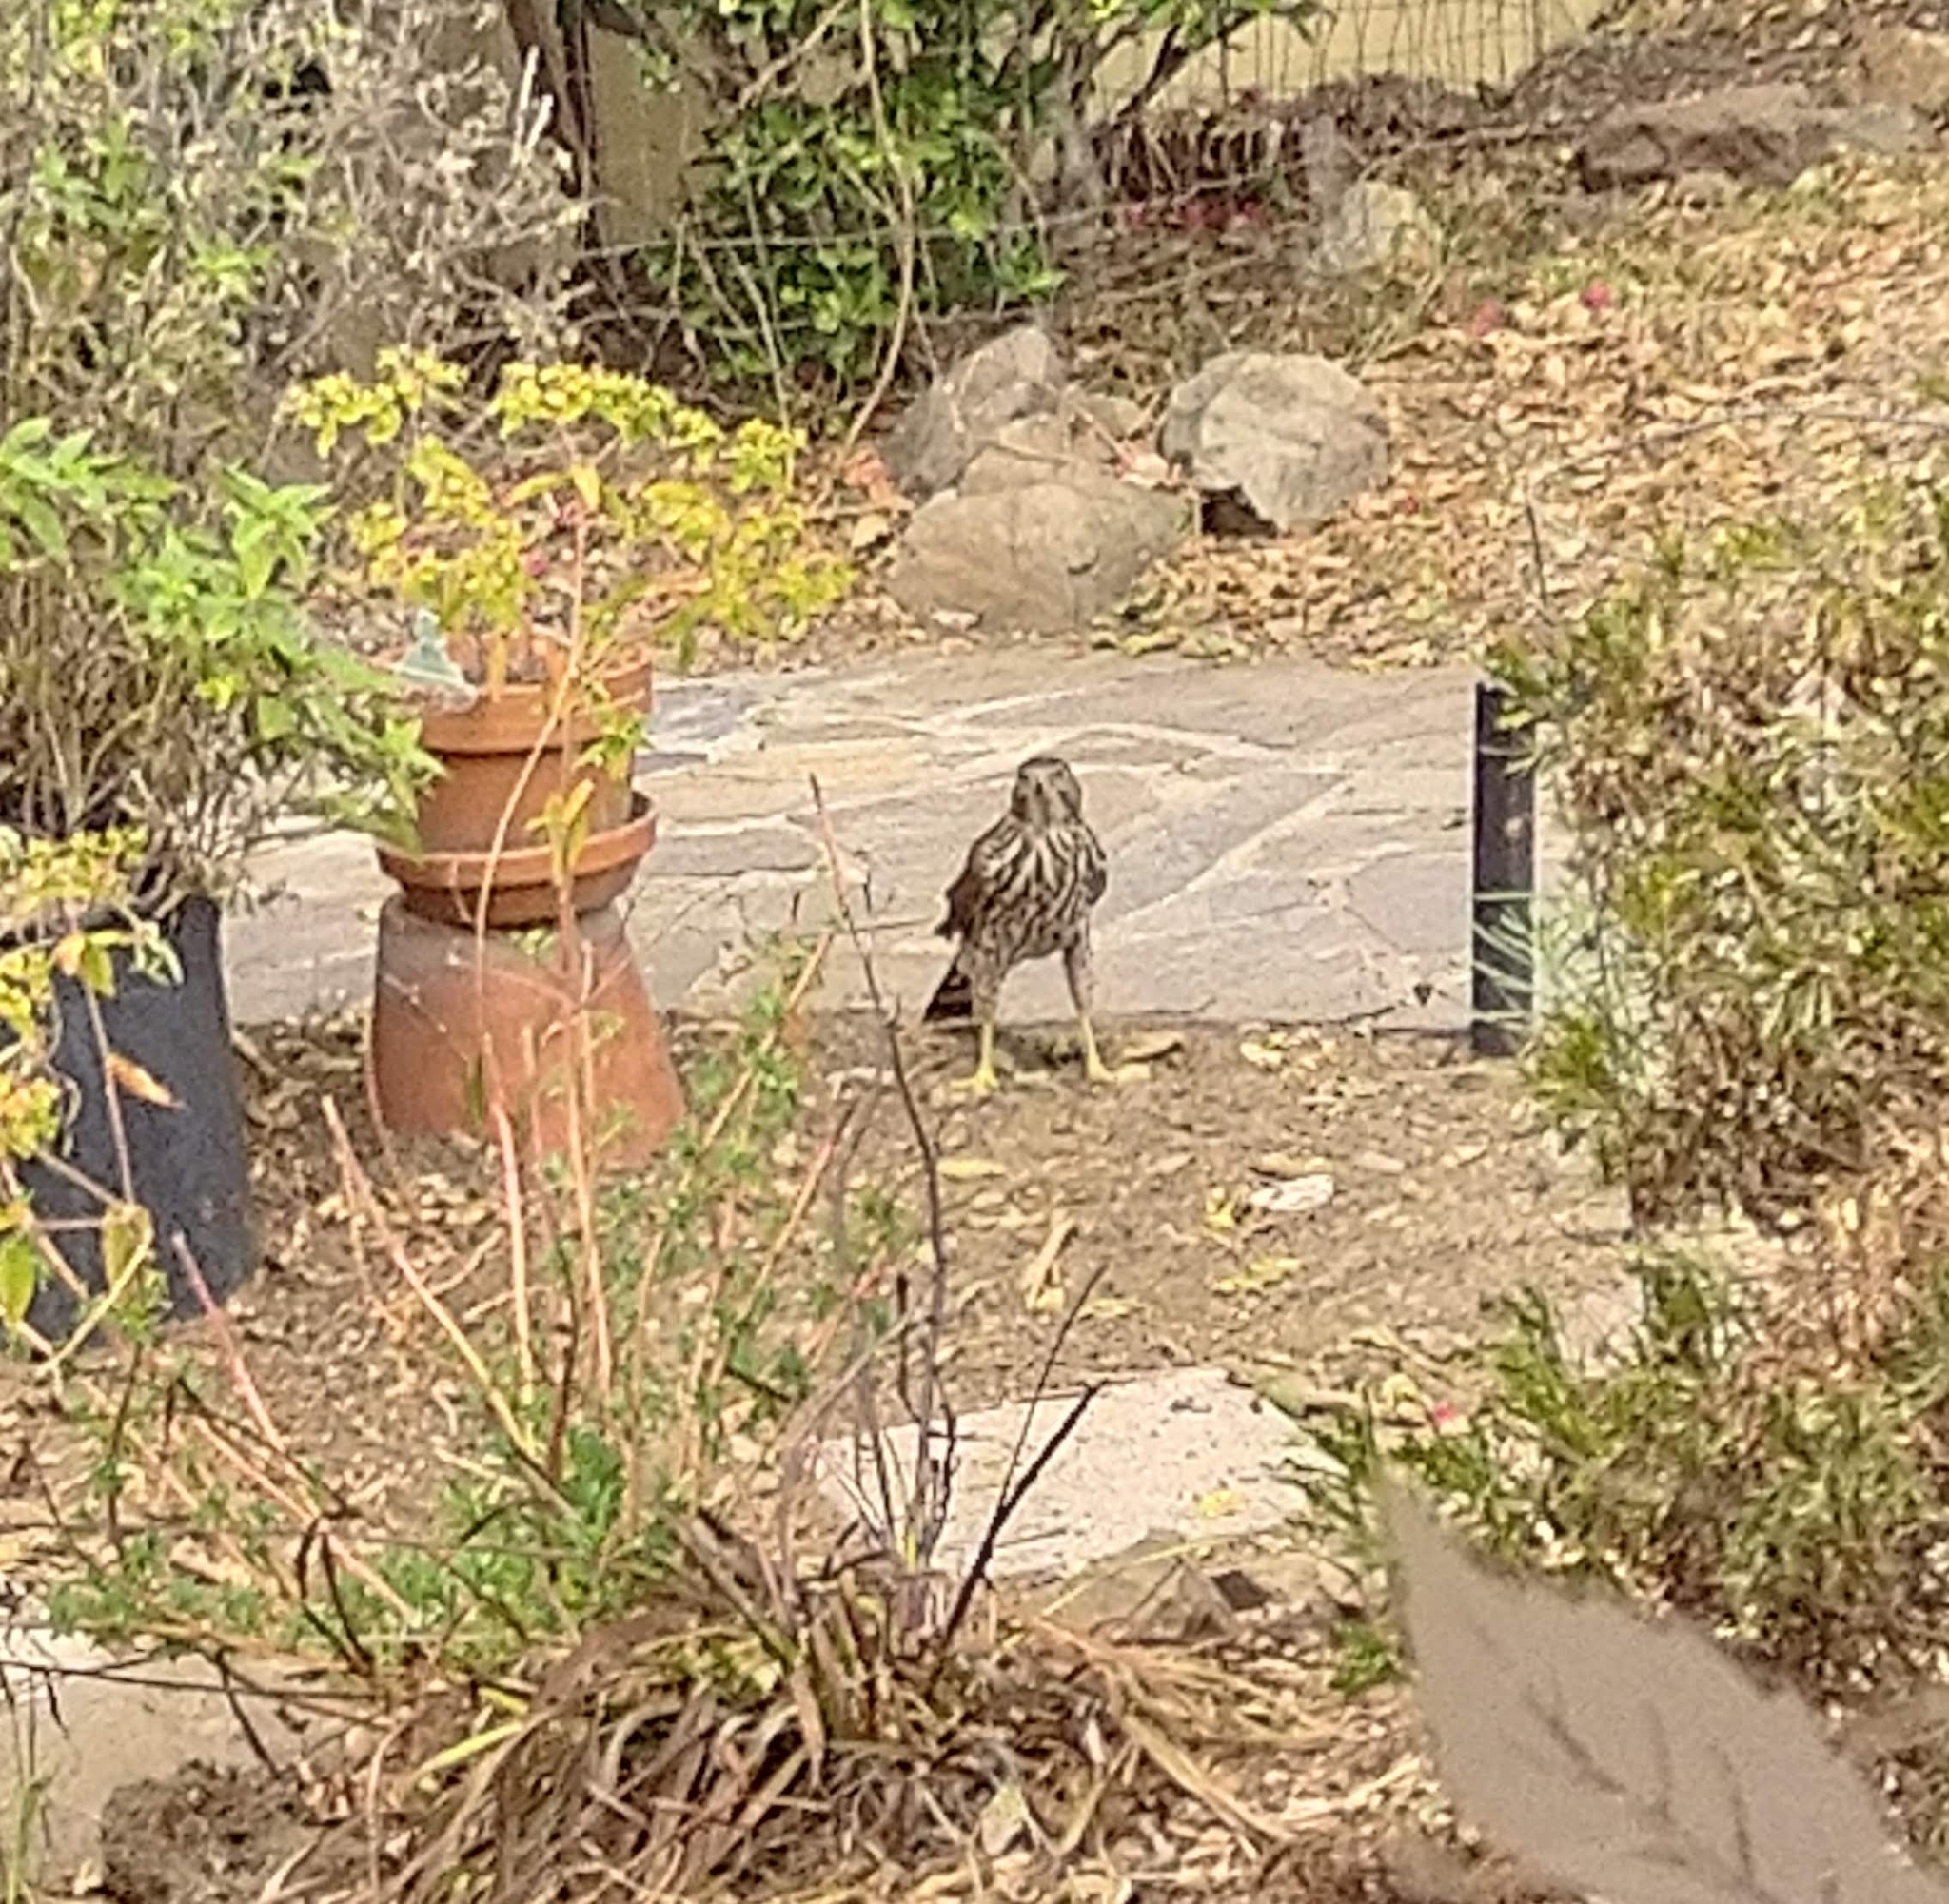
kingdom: Animalia
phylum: Chordata
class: Aves
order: Accipitriformes
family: Accipitridae
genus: Accipiter
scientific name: Accipiter cooperii
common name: Cooper's hawk
